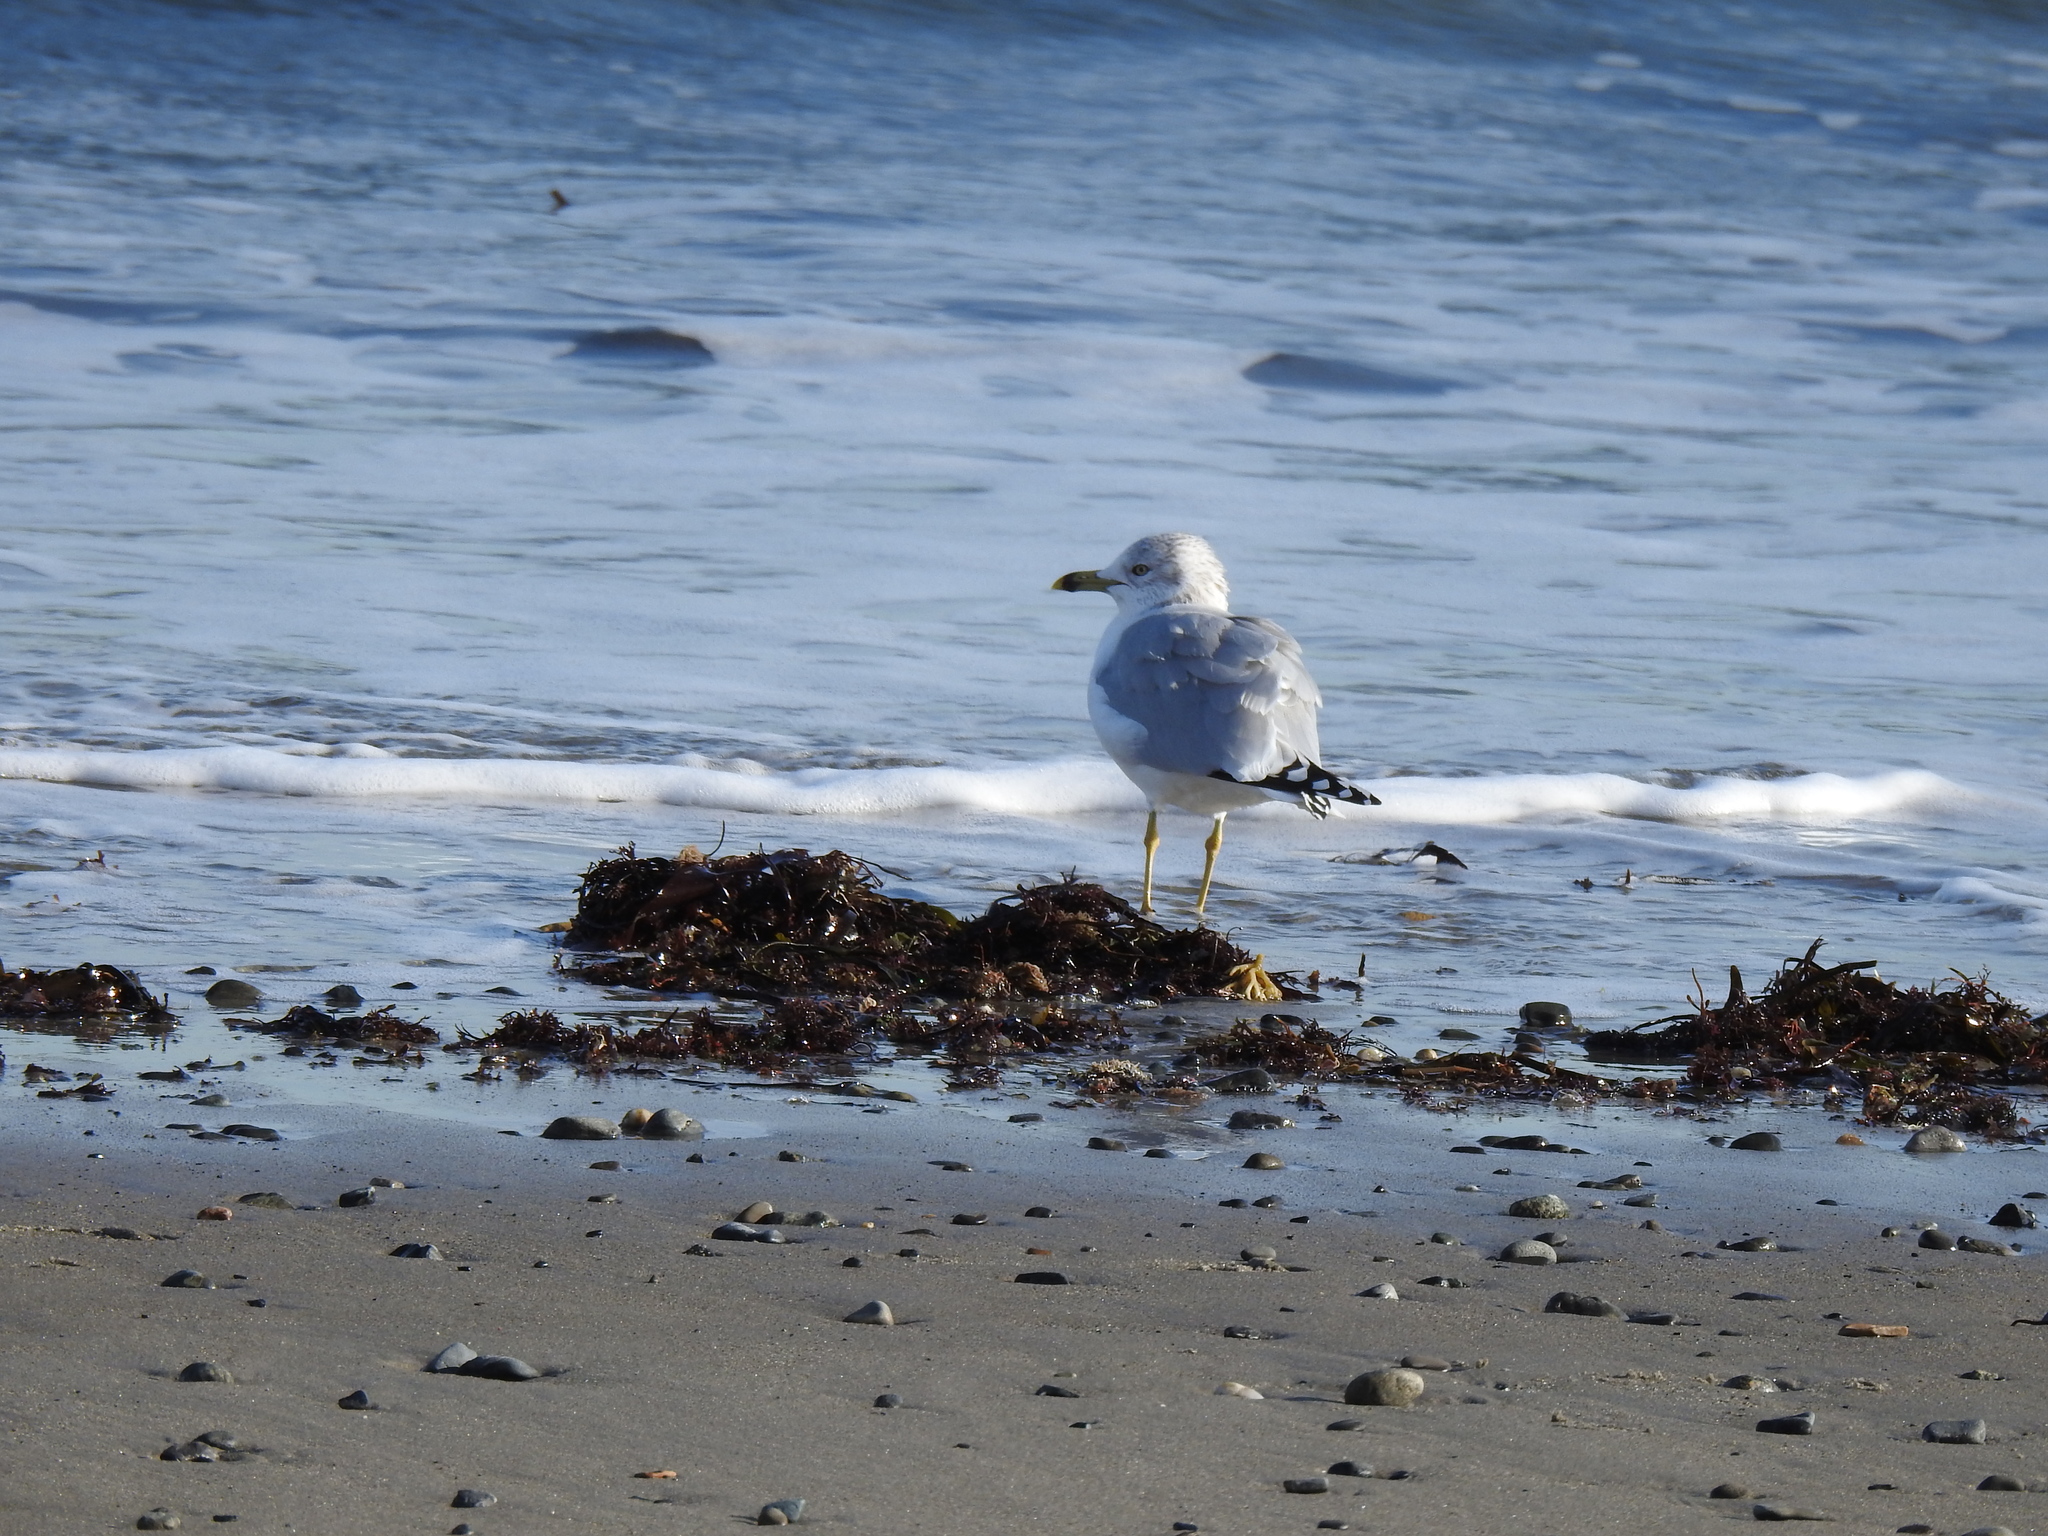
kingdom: Animalia
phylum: Chordata
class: Aves
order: Charadriiformes
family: Laridae
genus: Larus
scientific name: Larus delawarensis
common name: Ring-billed gull
